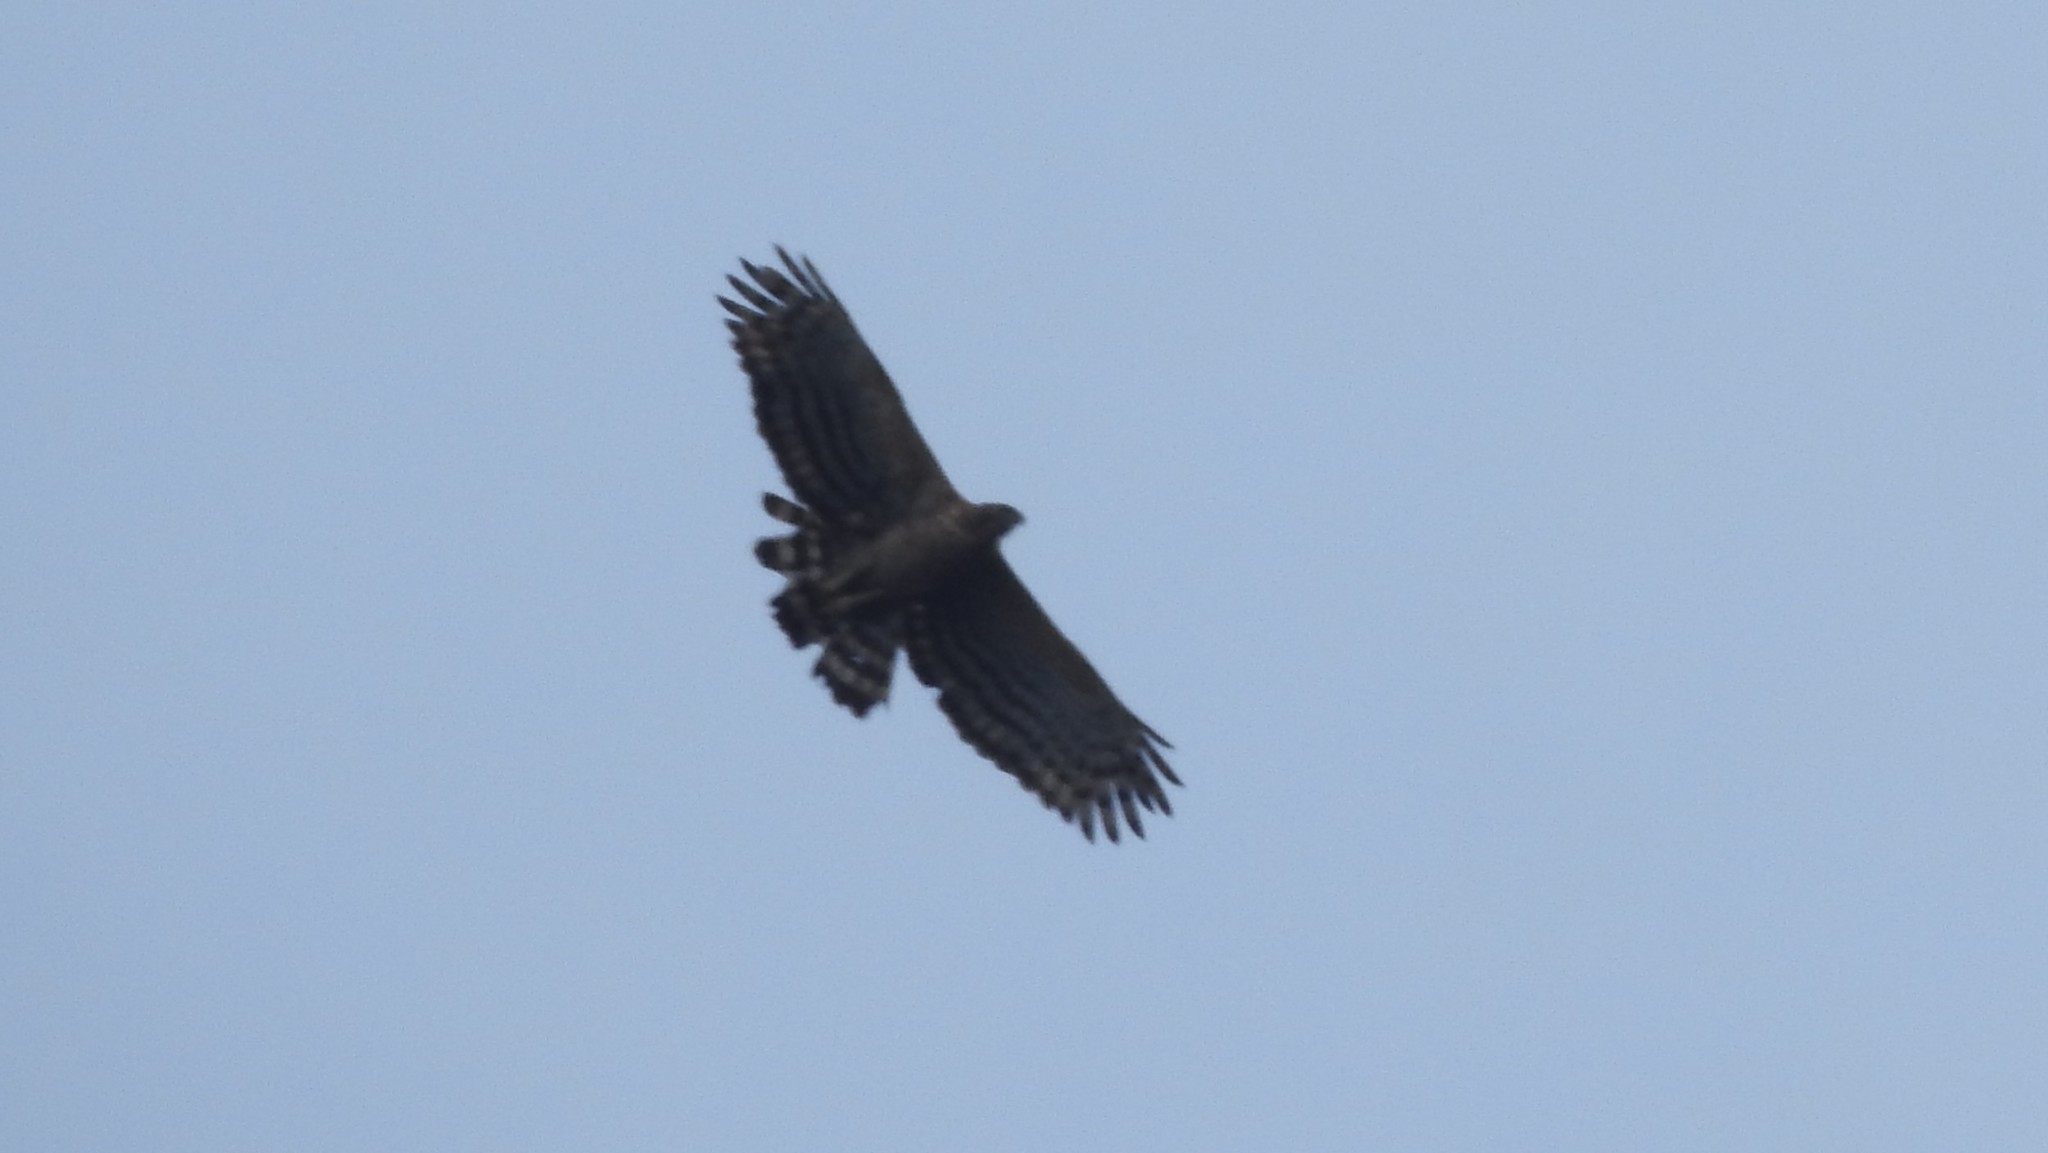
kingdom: Animalia
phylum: Chordata
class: Aves
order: Accipitriformes
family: Accipitridae
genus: Nisaetus
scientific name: Nisaetus kelaarti
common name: Legge's hawk-eagle
